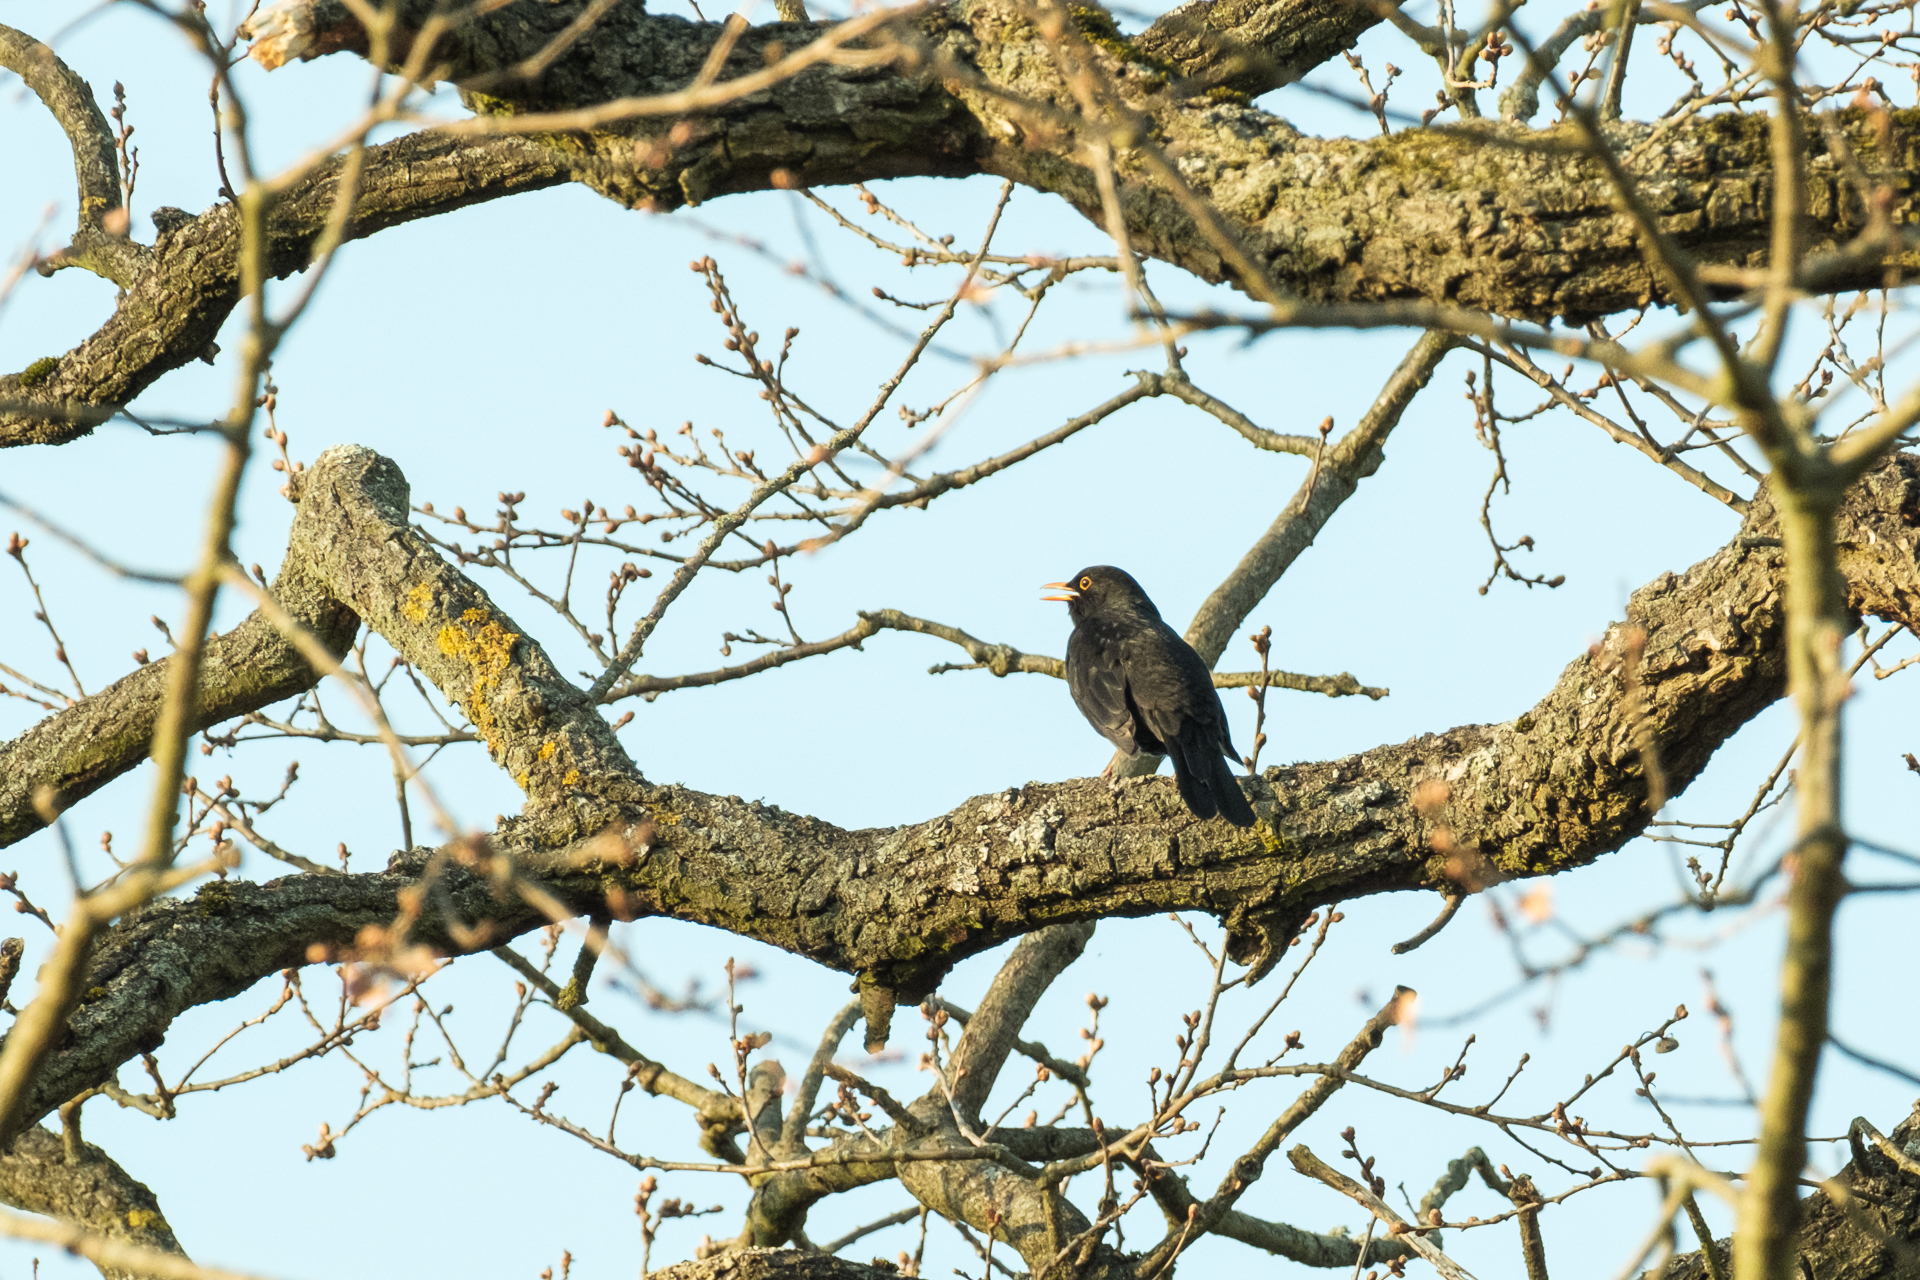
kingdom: Animalia
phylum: Chordata
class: Aves
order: Passeriformes
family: Turdidae
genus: Turdus
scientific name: Turdus merula
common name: Common blackbird
